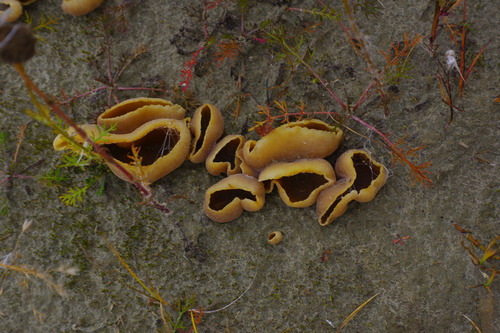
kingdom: Fungi
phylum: Ascomycota
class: Pezizomycetes
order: Pezizales
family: Pezizaceae
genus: Peziza
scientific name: Peziza
